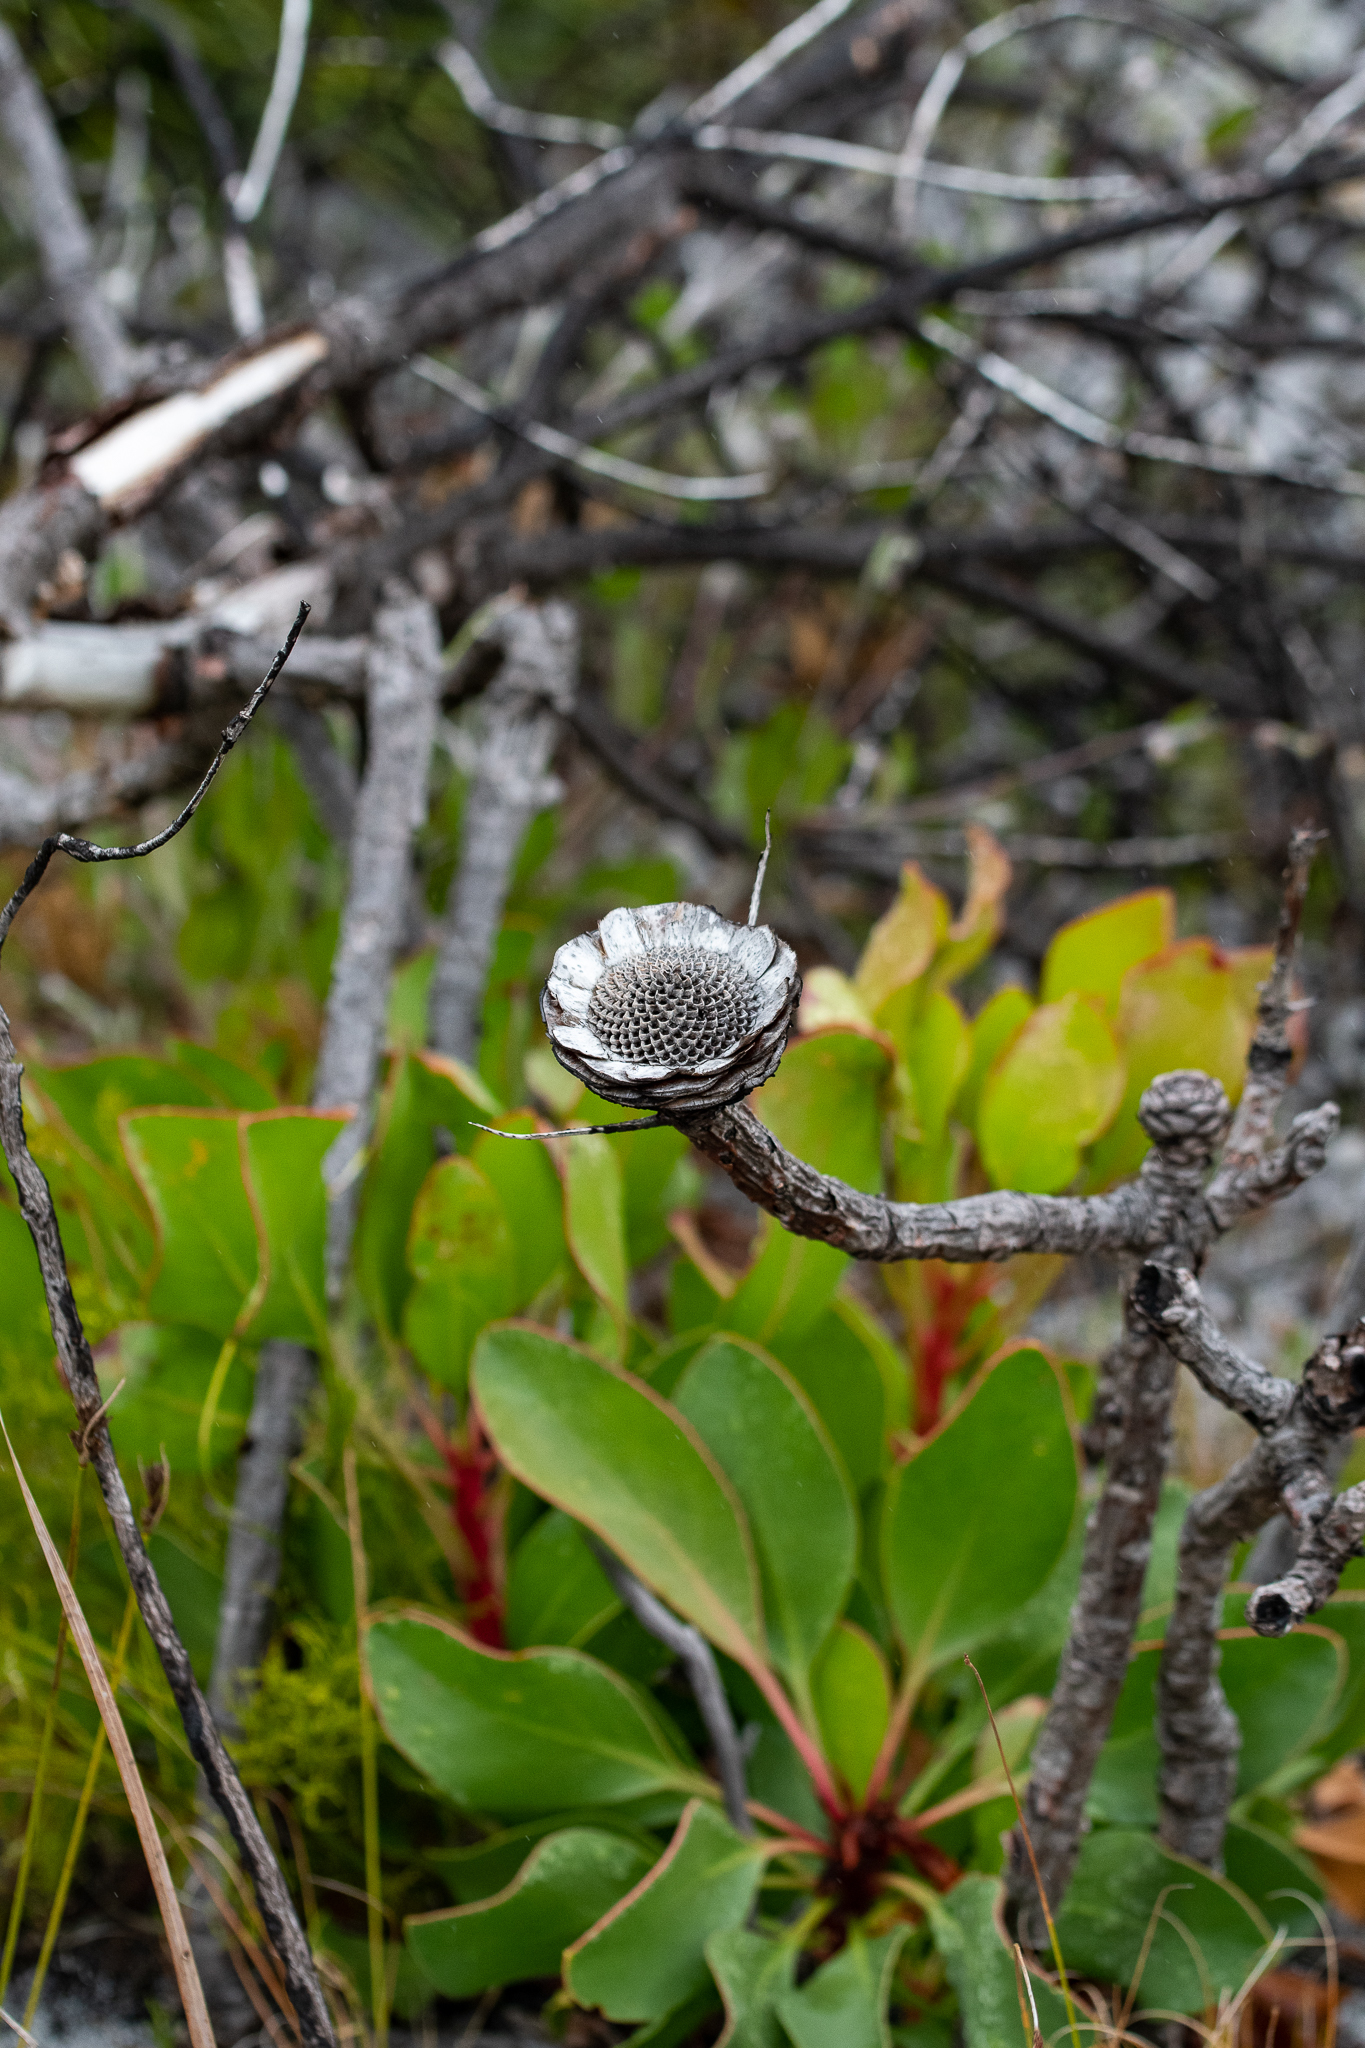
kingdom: Plantae
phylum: Tracheophyta
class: Magnoliopsida
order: Proteales
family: Proteaceae
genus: Protea
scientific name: Protea cynaroides
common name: King protea
